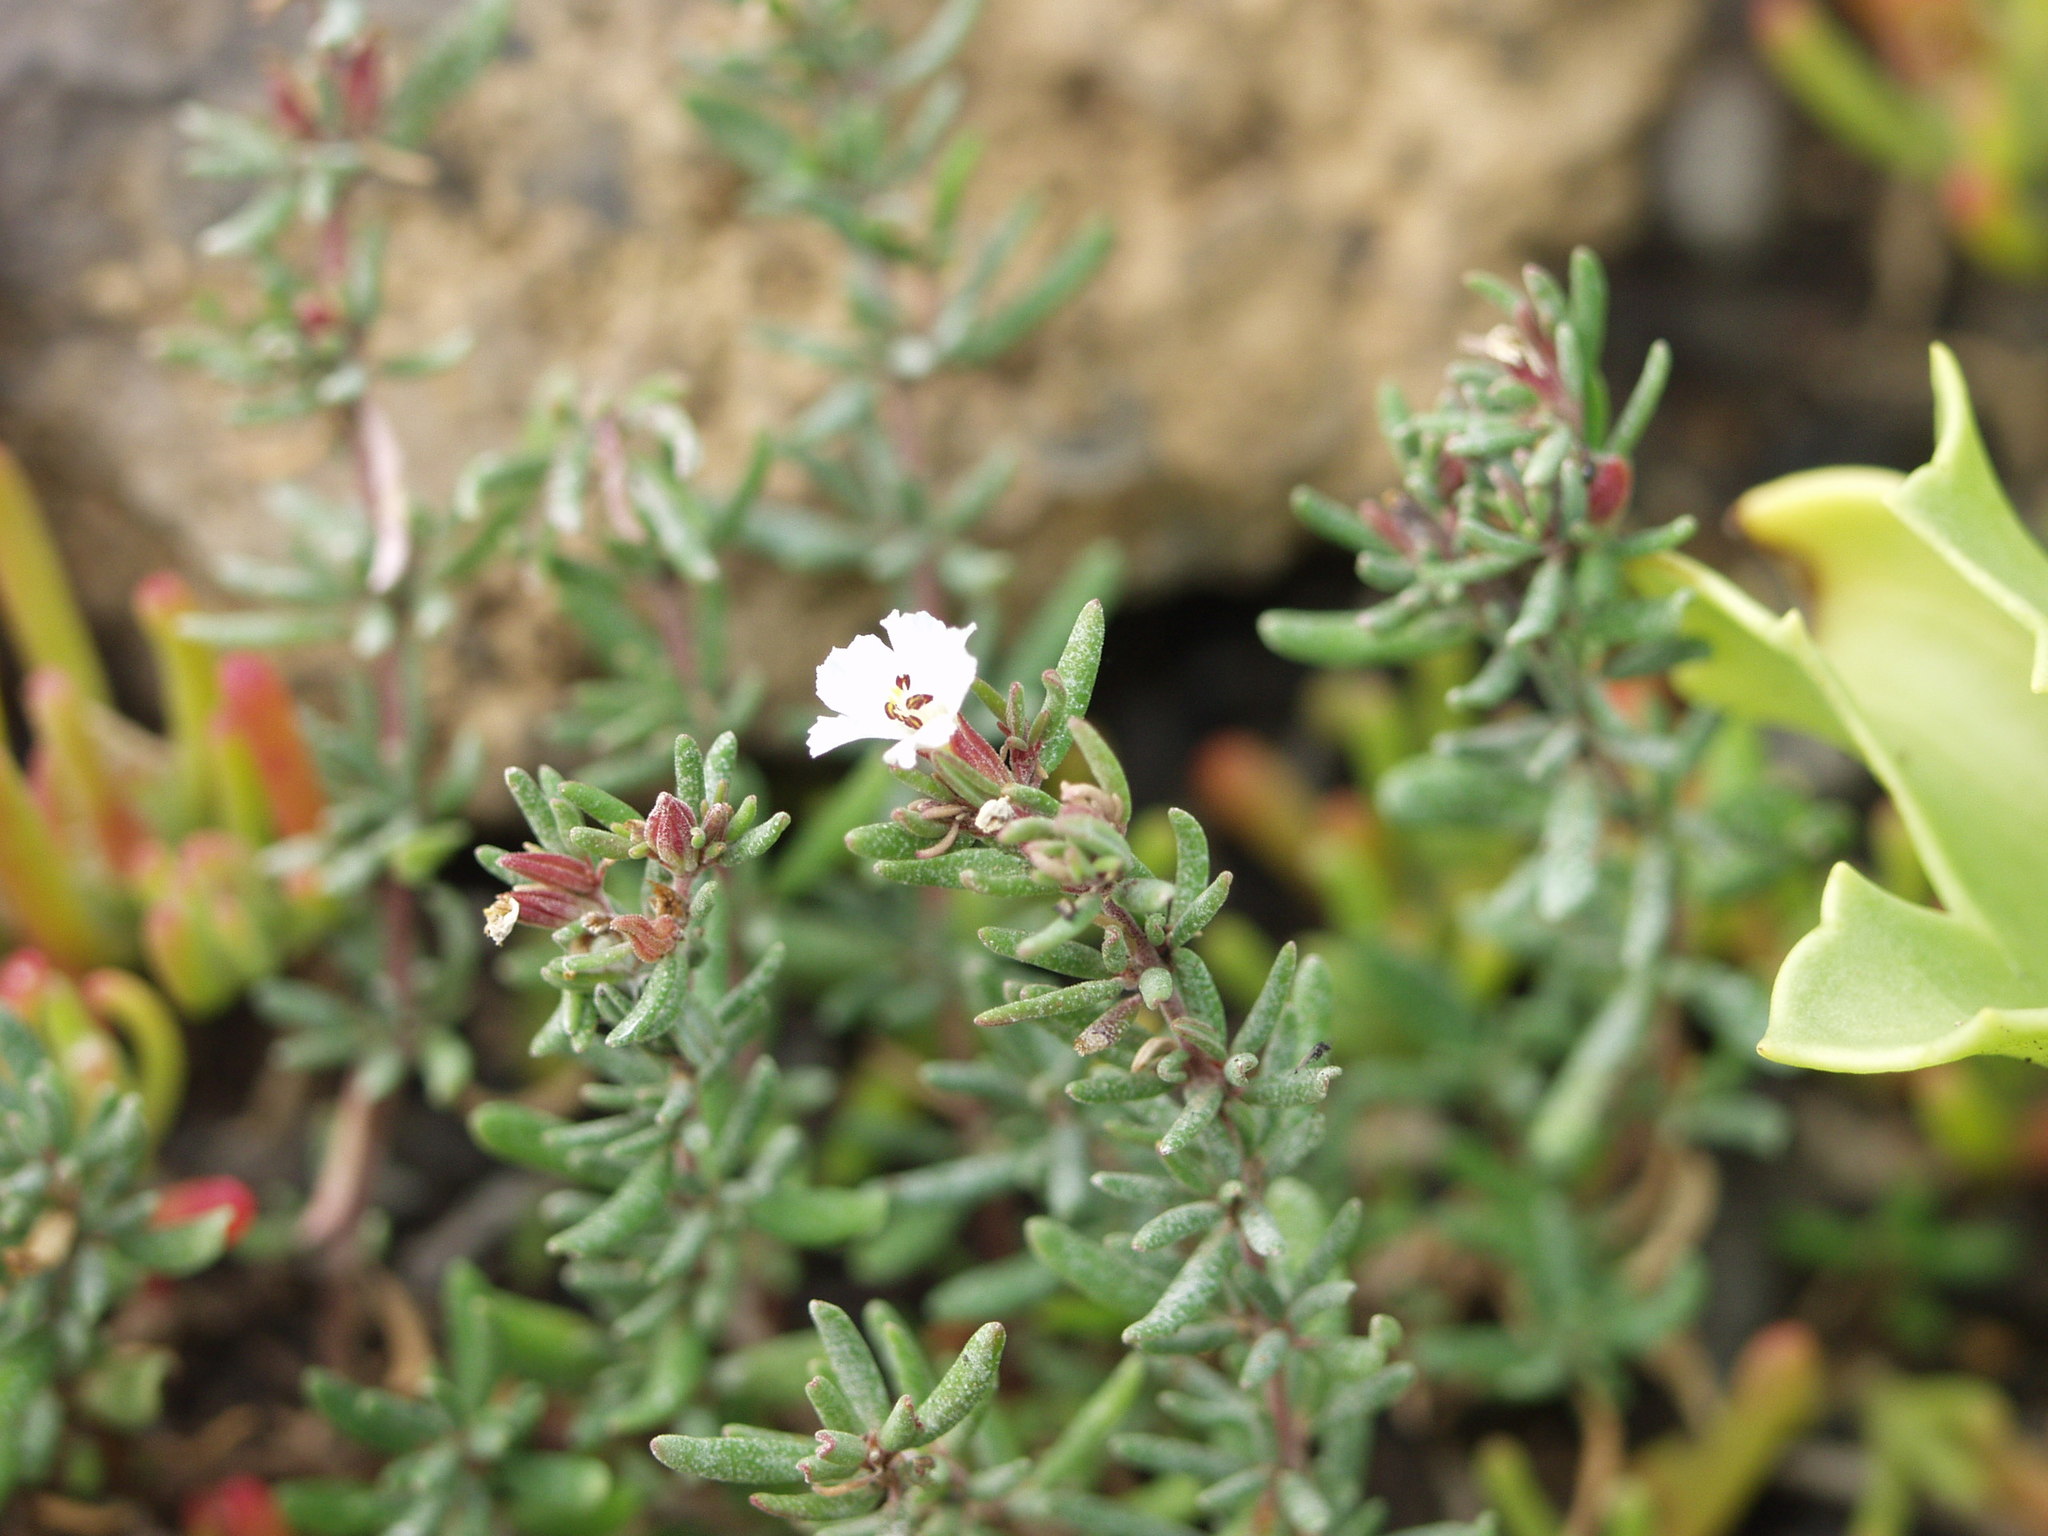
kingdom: Plantae
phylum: Tracheophyta
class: Magnoliopsida
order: Caryophyllales
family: Frankeniaceae
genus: Frankenia
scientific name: Frankenia capitata
